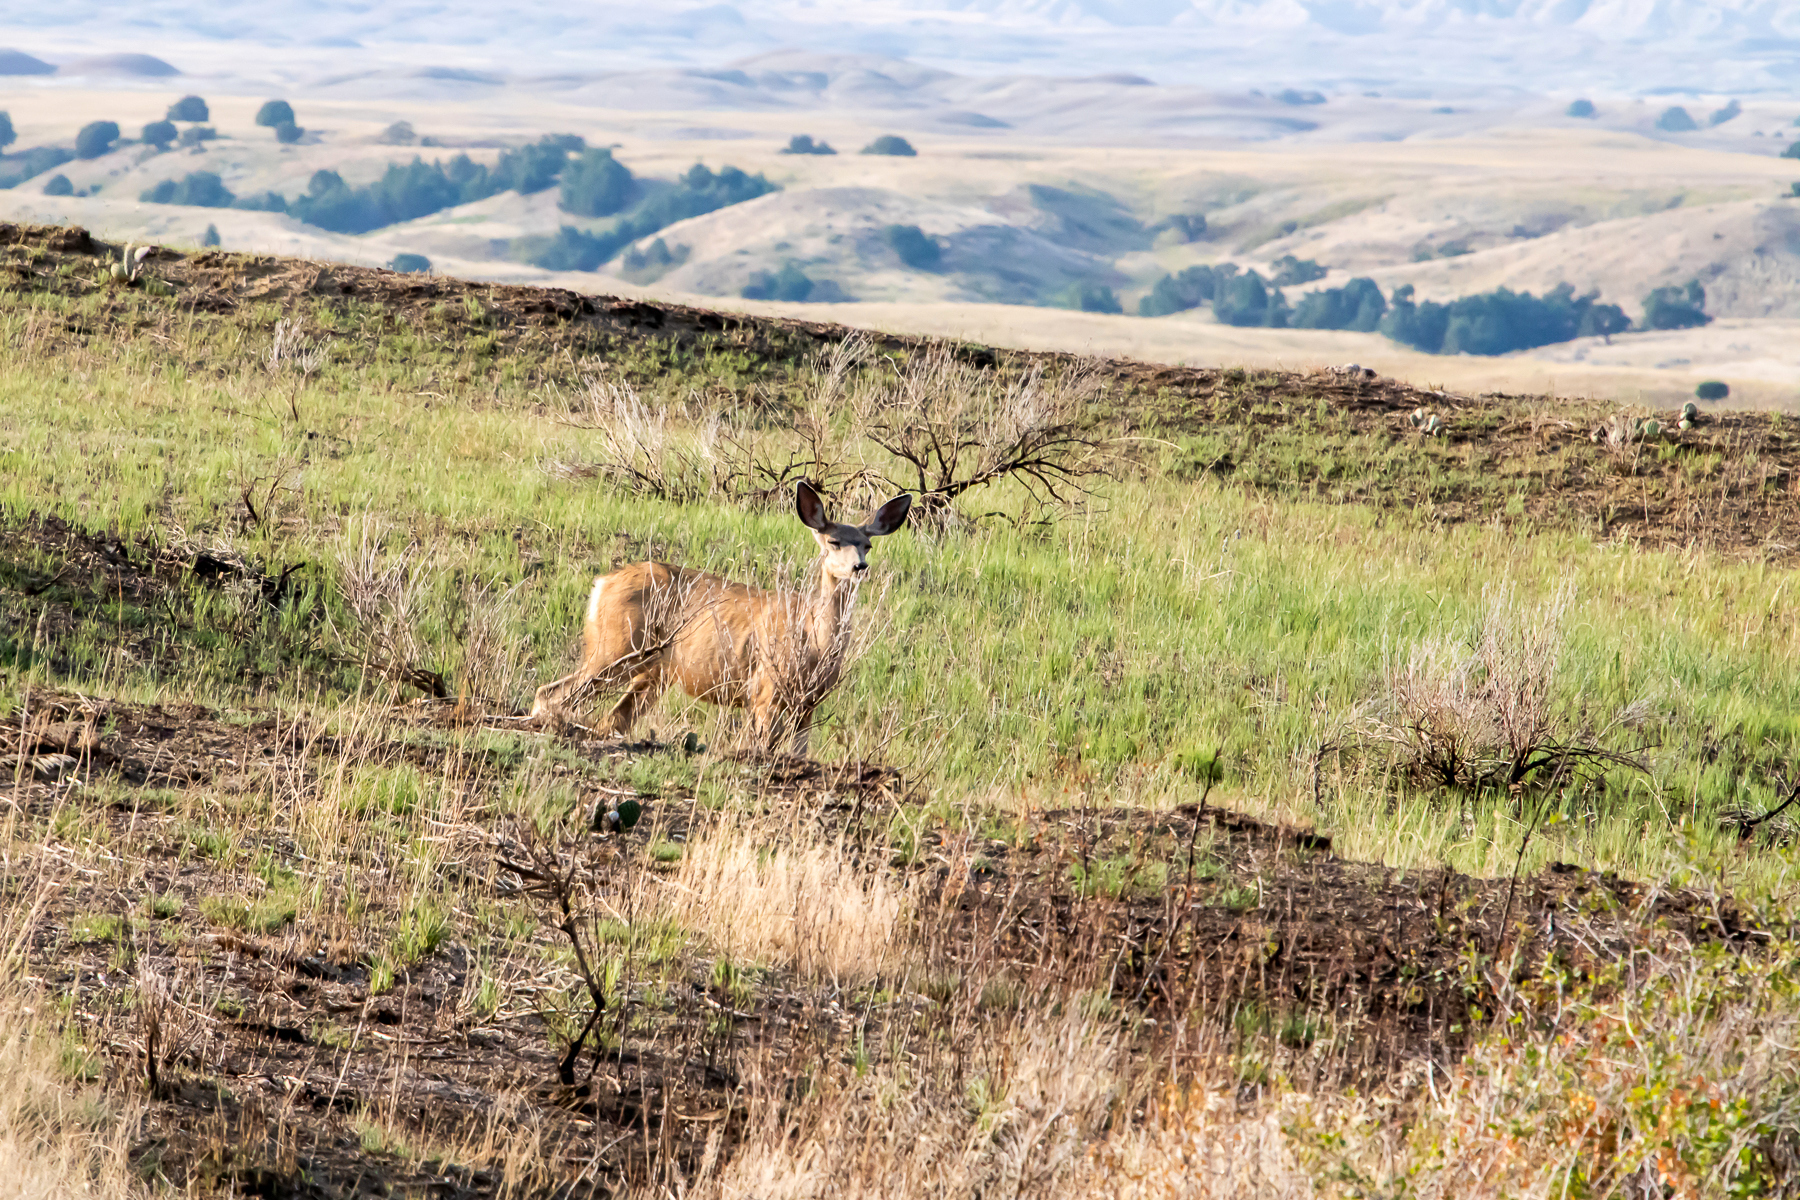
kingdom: Animalia
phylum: Chordata
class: Mammalia
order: Artiodactyla
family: Cervidae
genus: Odocoileus
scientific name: Odocoileus hemionus
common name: Mule deer
